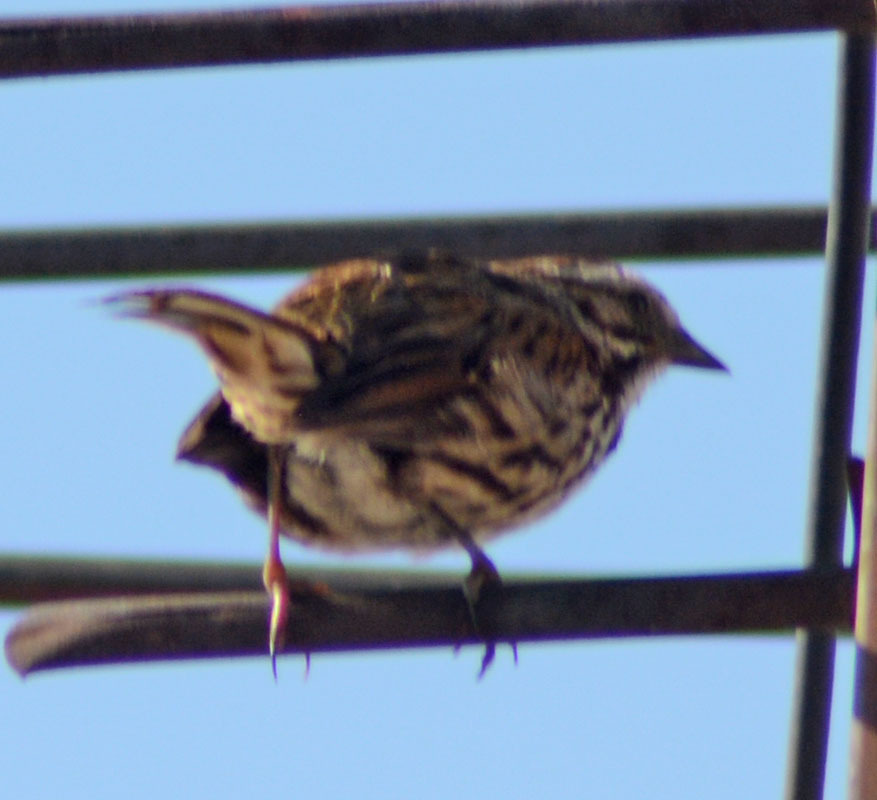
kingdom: Animalia
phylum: Chordata
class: Aves
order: Passeriformes
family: Passerellidae
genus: Melospiza
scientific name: Melospiza melodia
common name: Song sparrow
